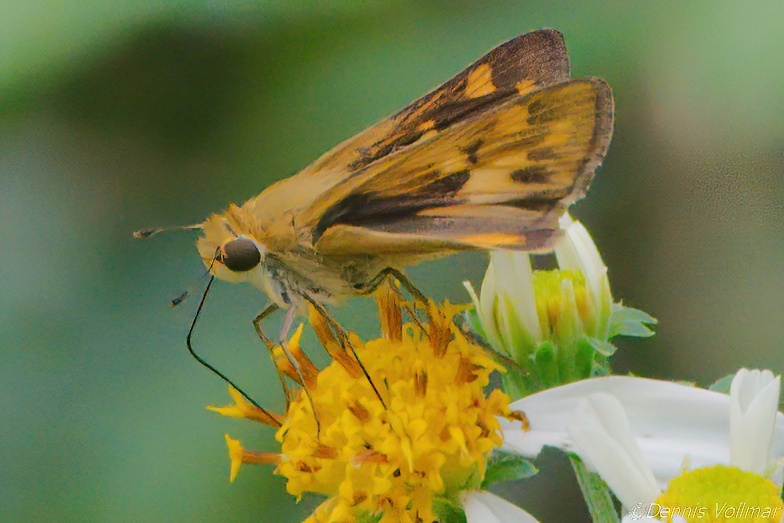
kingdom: Animalia
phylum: Arthropoda
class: Insecta
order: Lepidoptera
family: Hesperiidae
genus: Hylephila
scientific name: Hylephila phyleus
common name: Fiery skipper
